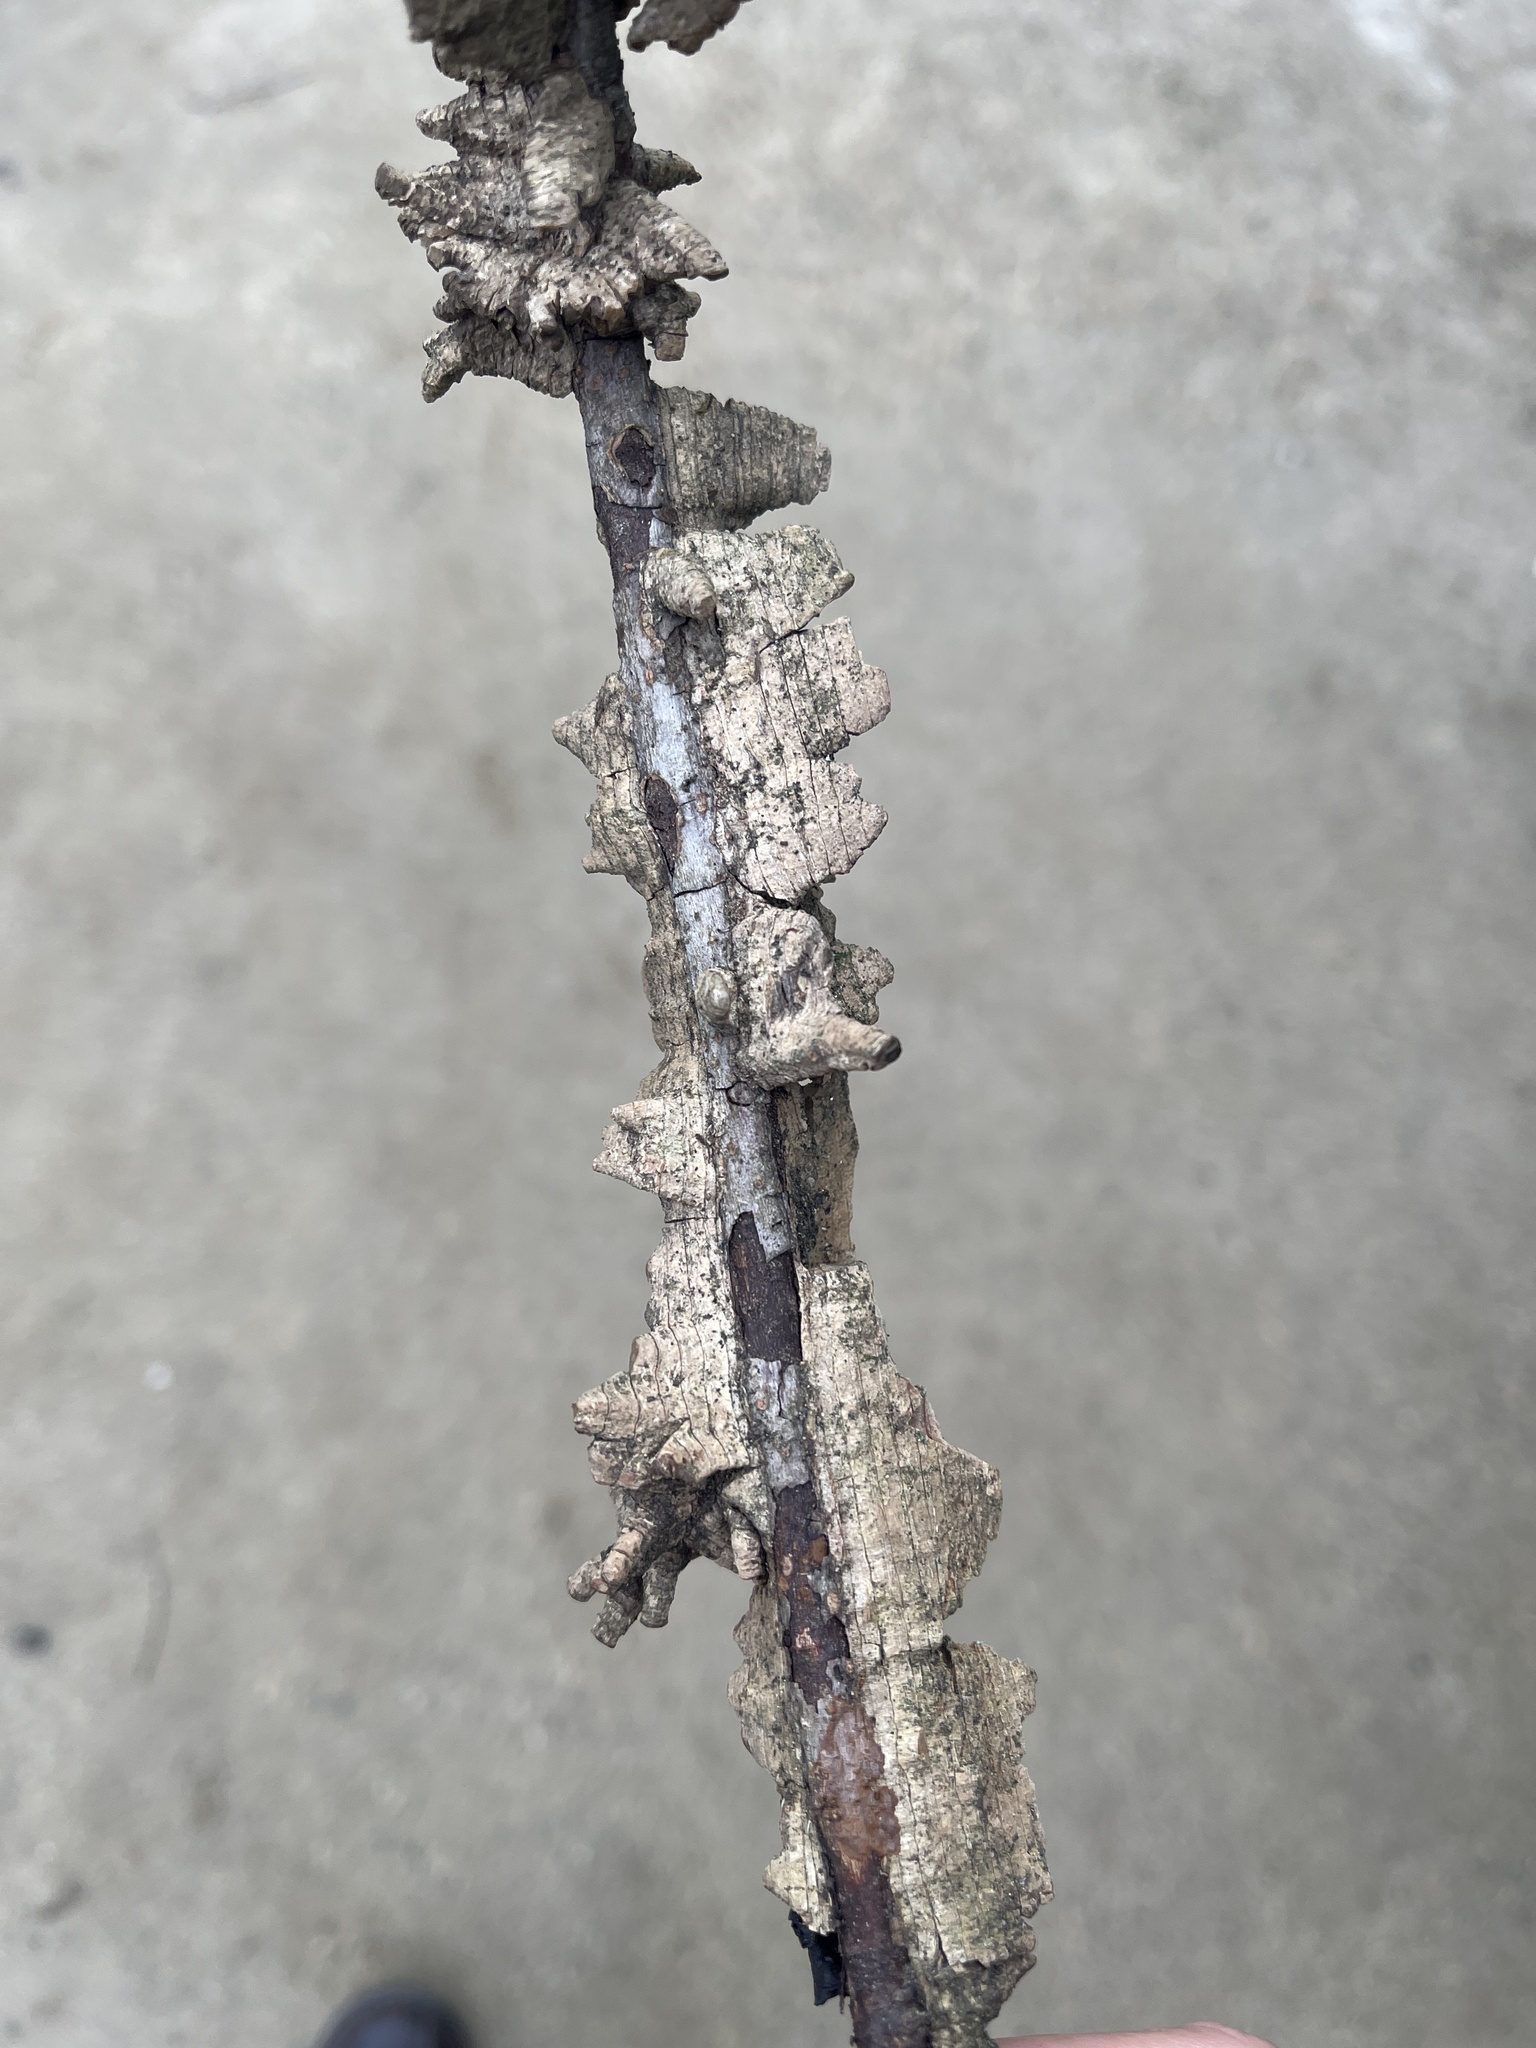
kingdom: Plantae
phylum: Tracheophyta
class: Magnoliopsida
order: Saxifragales
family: Altingiaceae
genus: Liquidambar
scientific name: Liquidambar styraciflua
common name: Sweet gum
